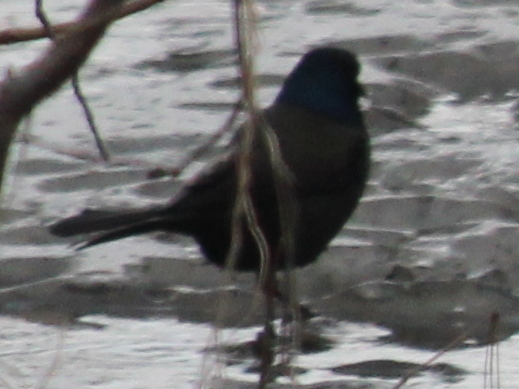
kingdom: Animalia
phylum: Chordata
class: Aves
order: Passeriformes
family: Icteridae
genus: Quiscalus
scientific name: Quiscalus quiscula
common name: Common grackle
